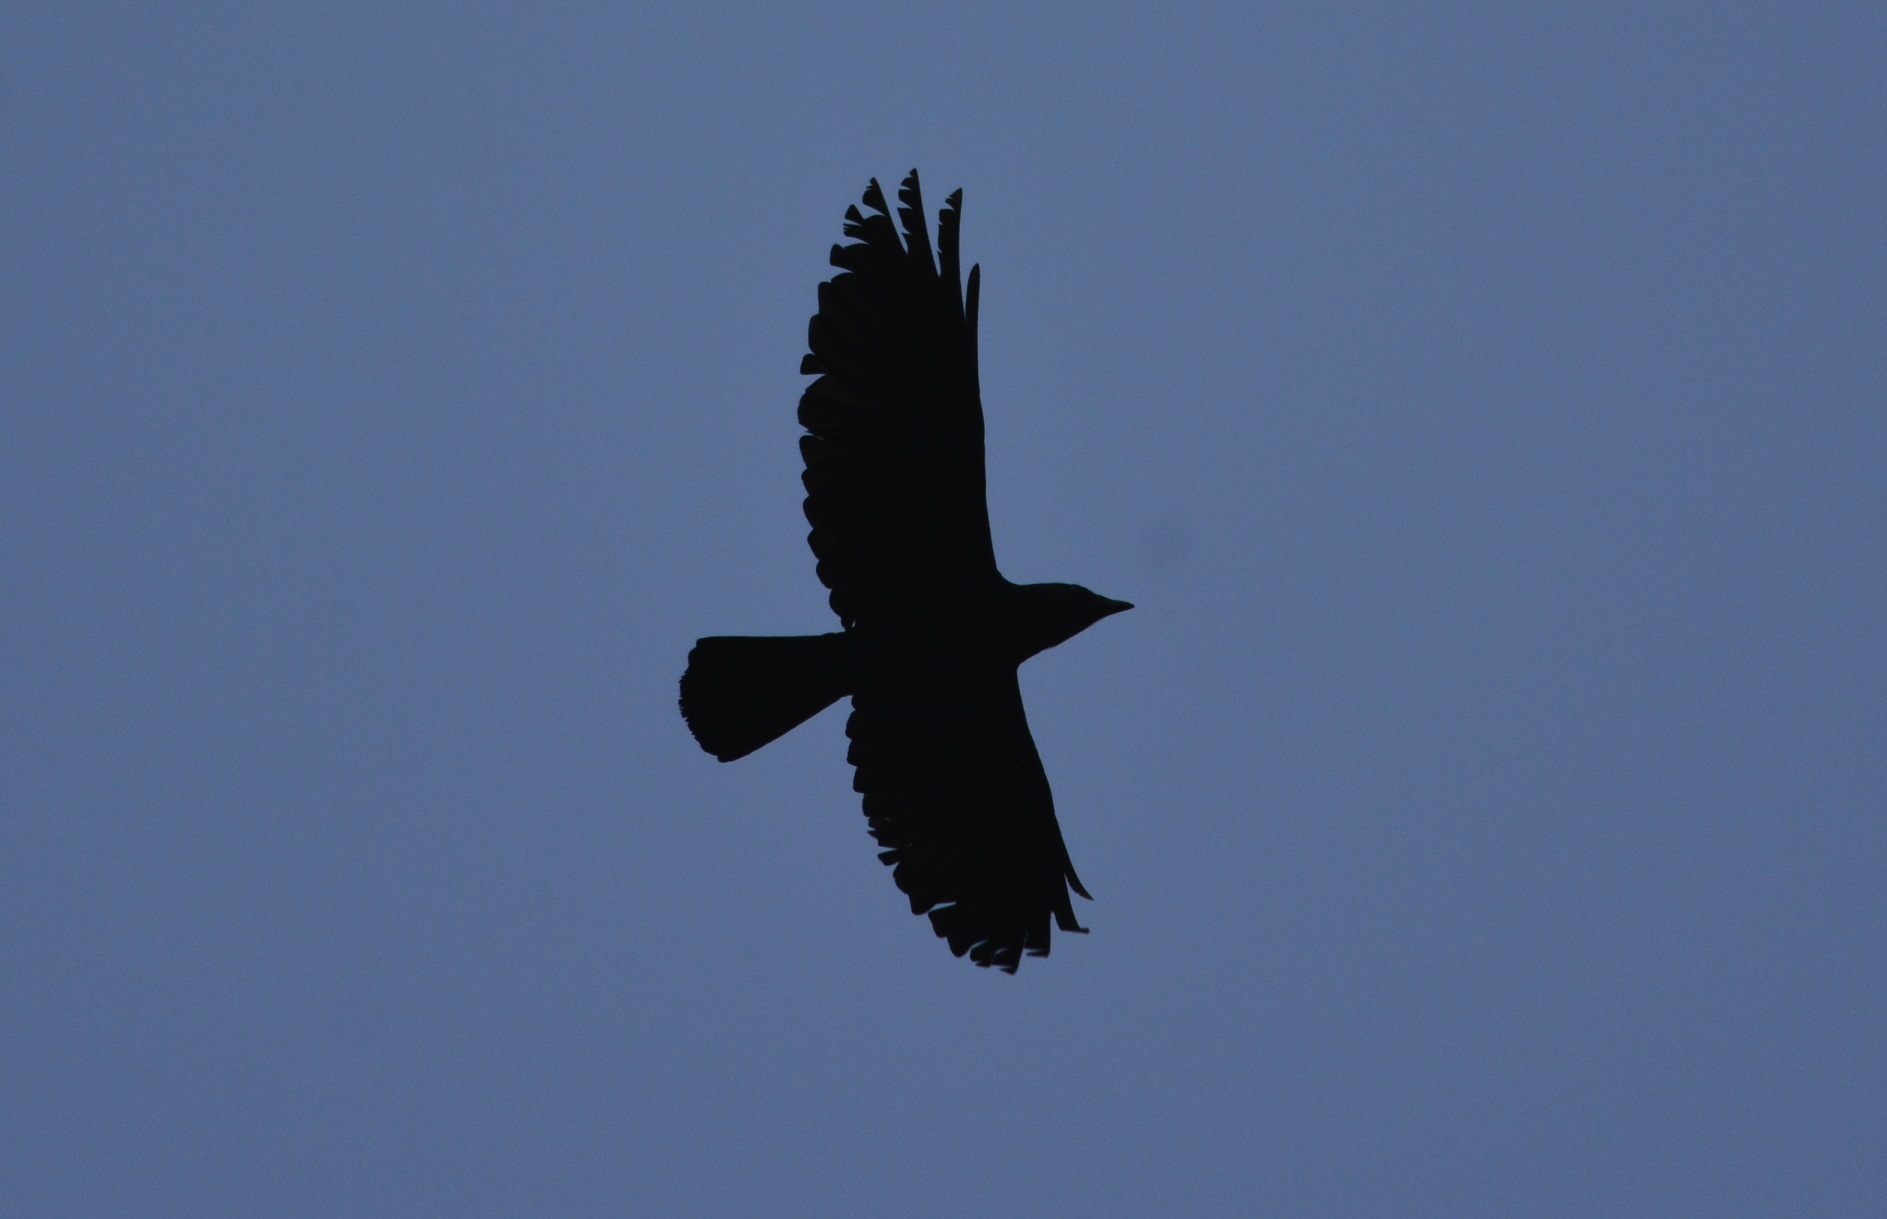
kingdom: Animalia
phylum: Chordata
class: Aves
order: Passeriformes
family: Corvidae
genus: Coloeus
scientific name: Coloeus monedula
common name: Western jackdaw
